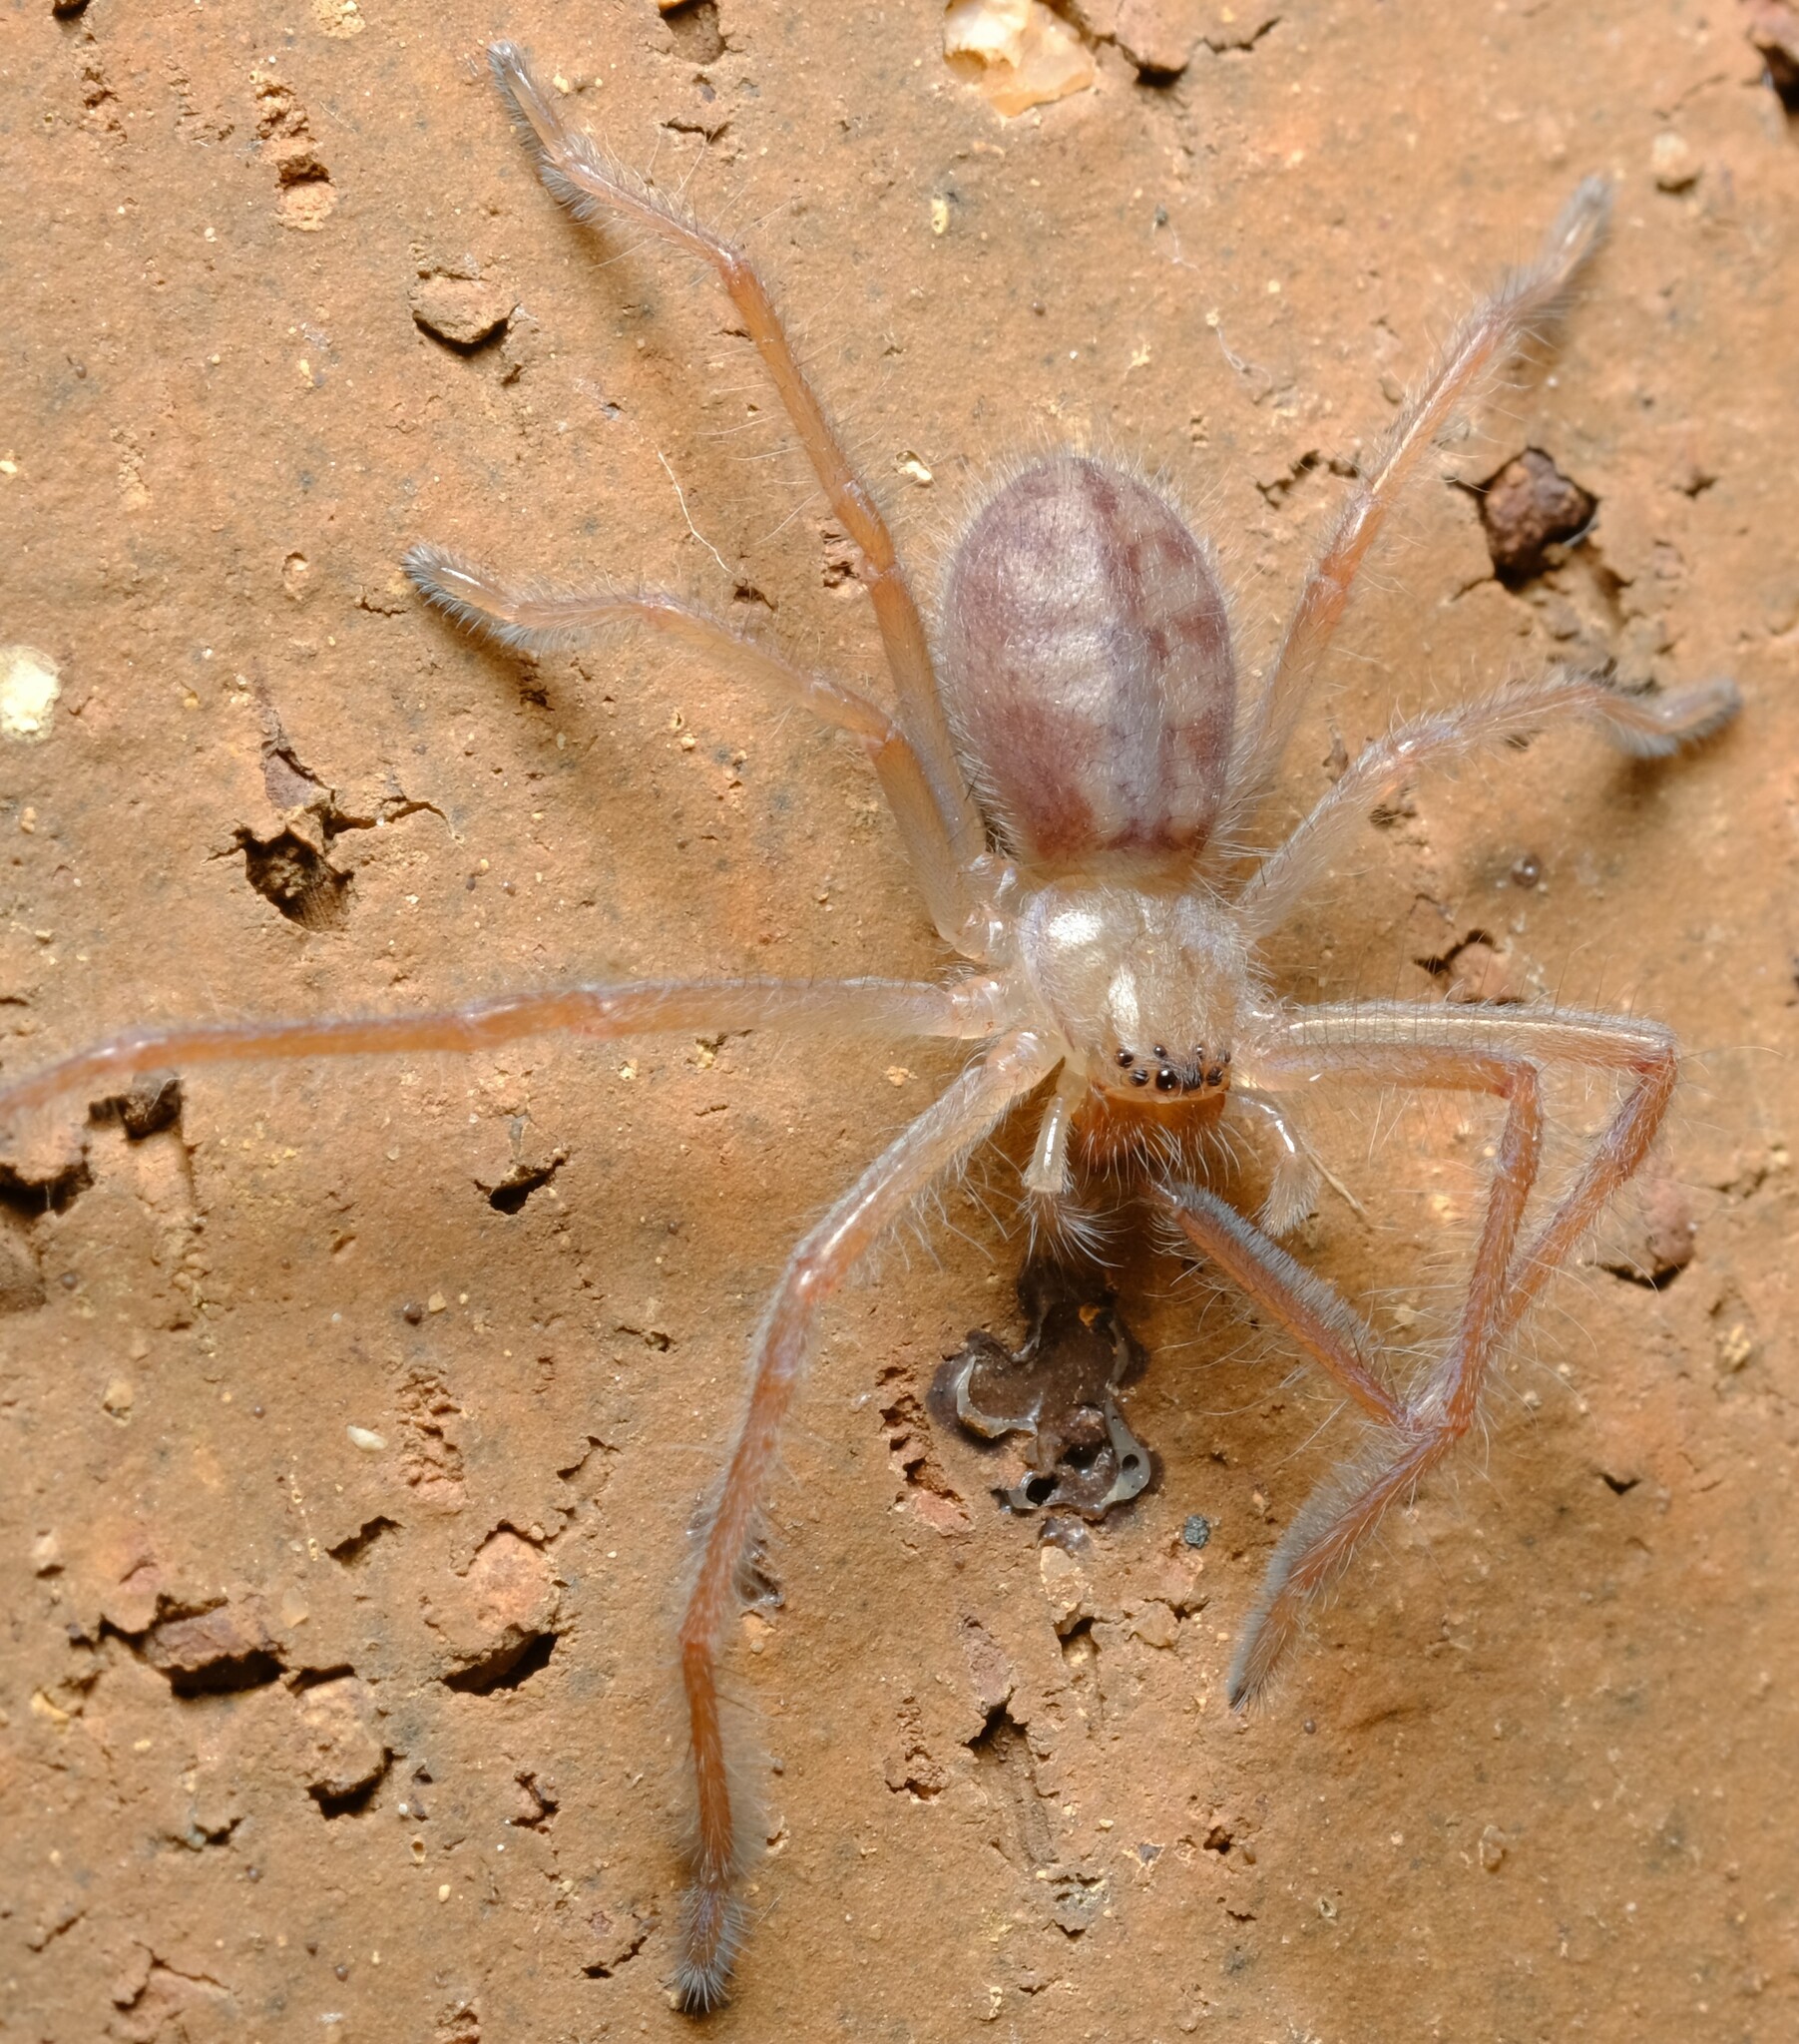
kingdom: Animalia
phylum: Arthropoda
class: Arachnida
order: Araneae
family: Sparassidae
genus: Delena
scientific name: Delena cancerides
